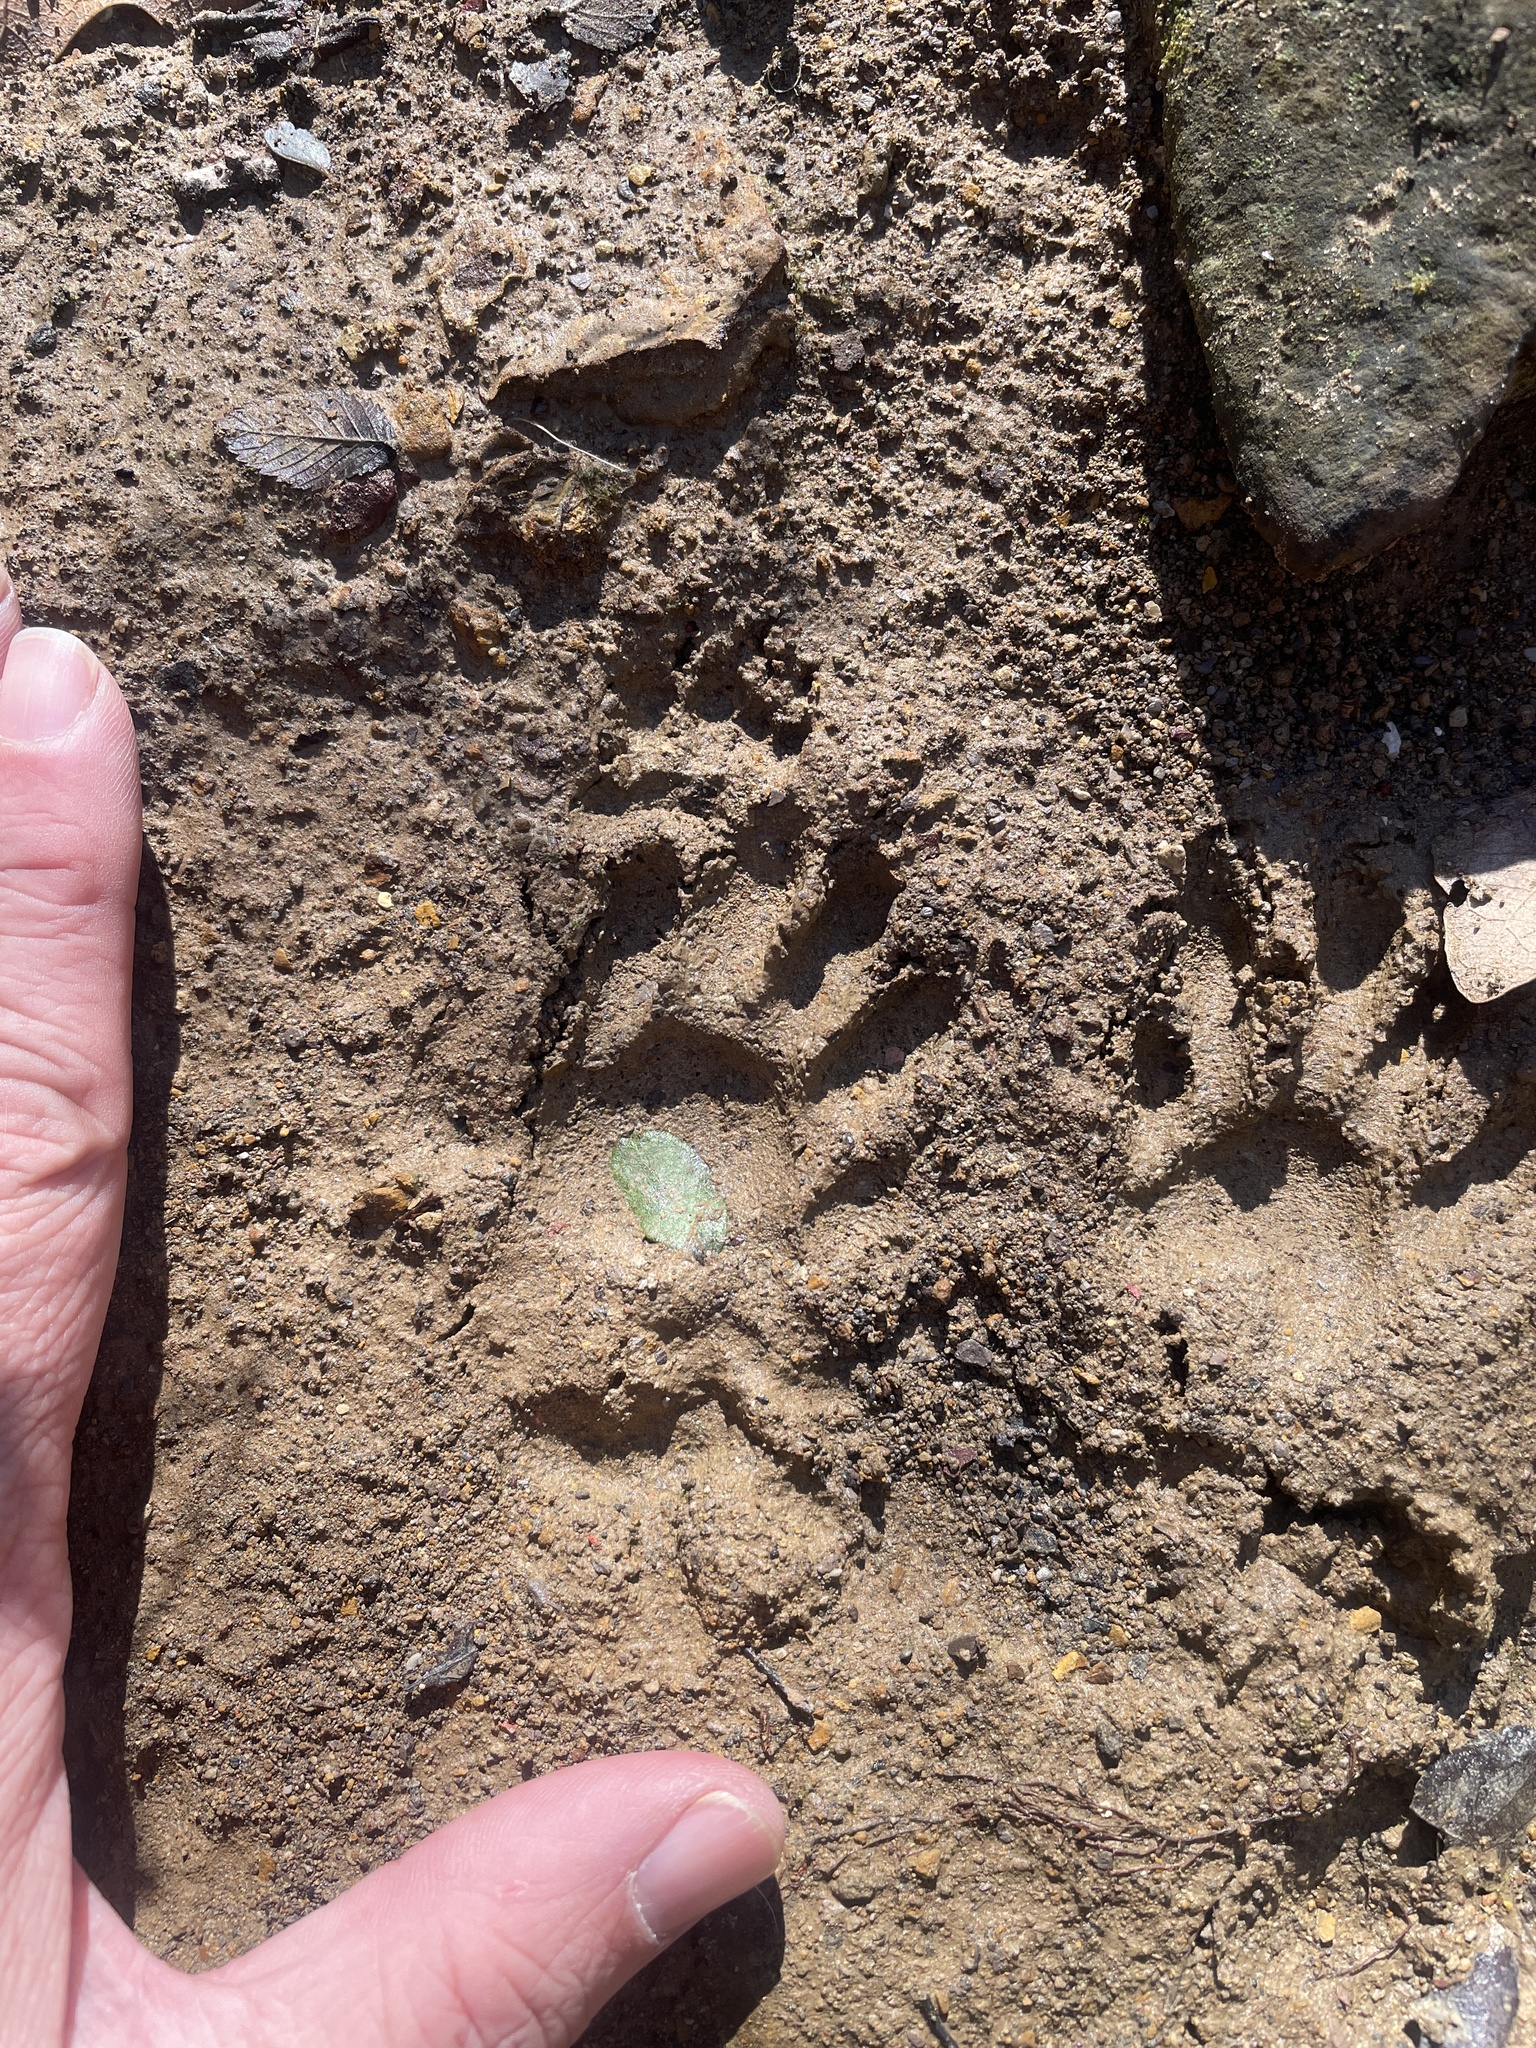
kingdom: Animalia
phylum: Chordata
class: Mammalia
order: Carnivora
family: Procyonidae
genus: Procyon
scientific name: Procyon lotor
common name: Raccoon
